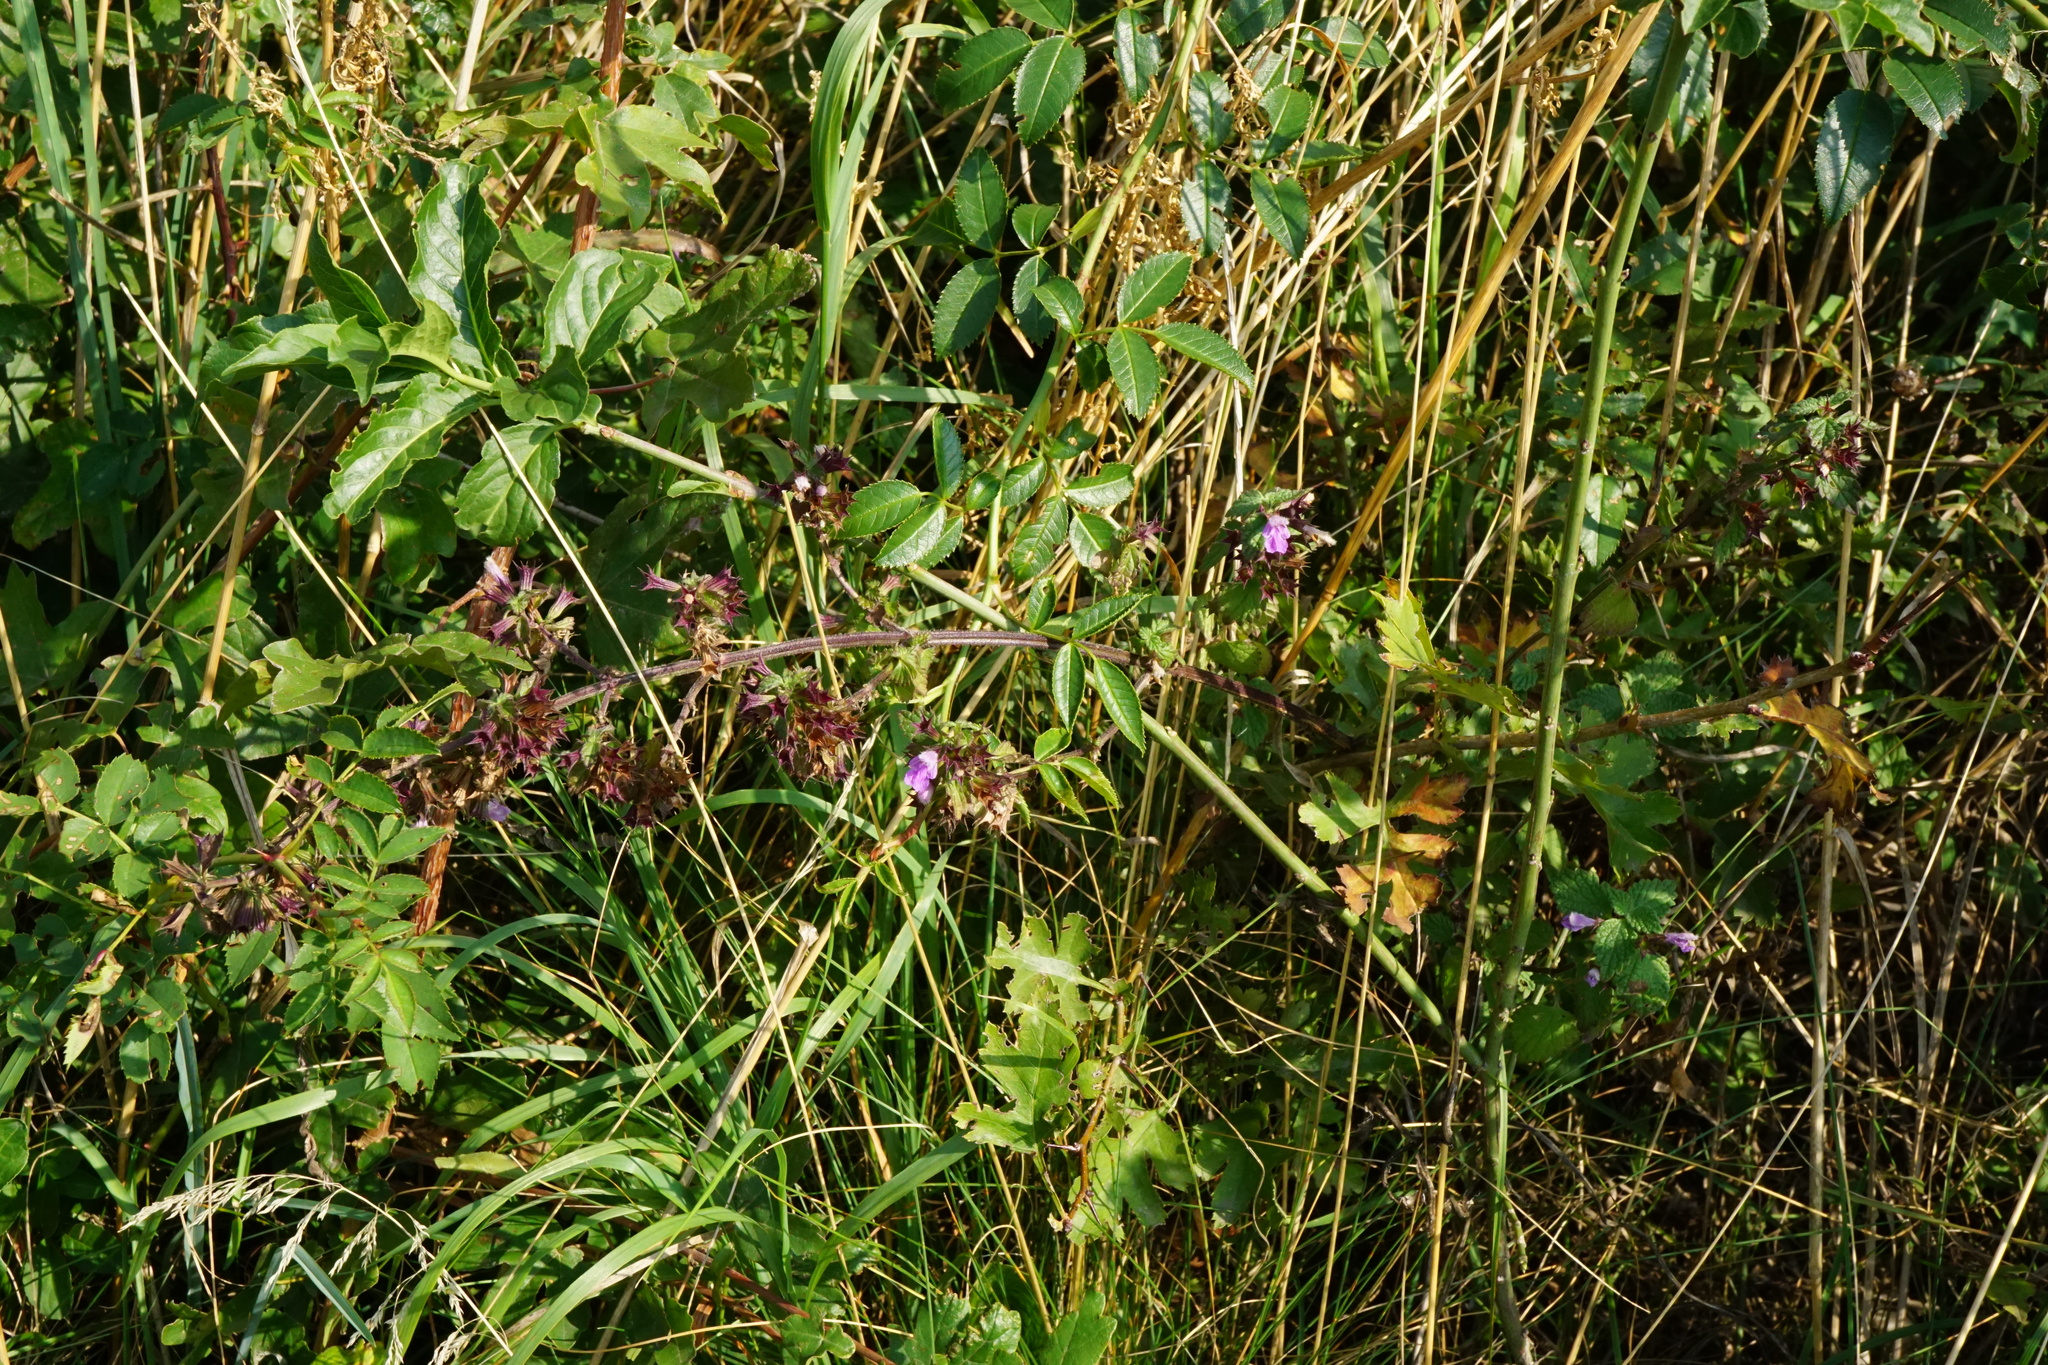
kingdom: Plantae
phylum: Tracheophyta
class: Magnoliopsida
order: Lamiales
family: Lamiaceae
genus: Ballota
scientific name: Ballota nigra
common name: Black horehound
